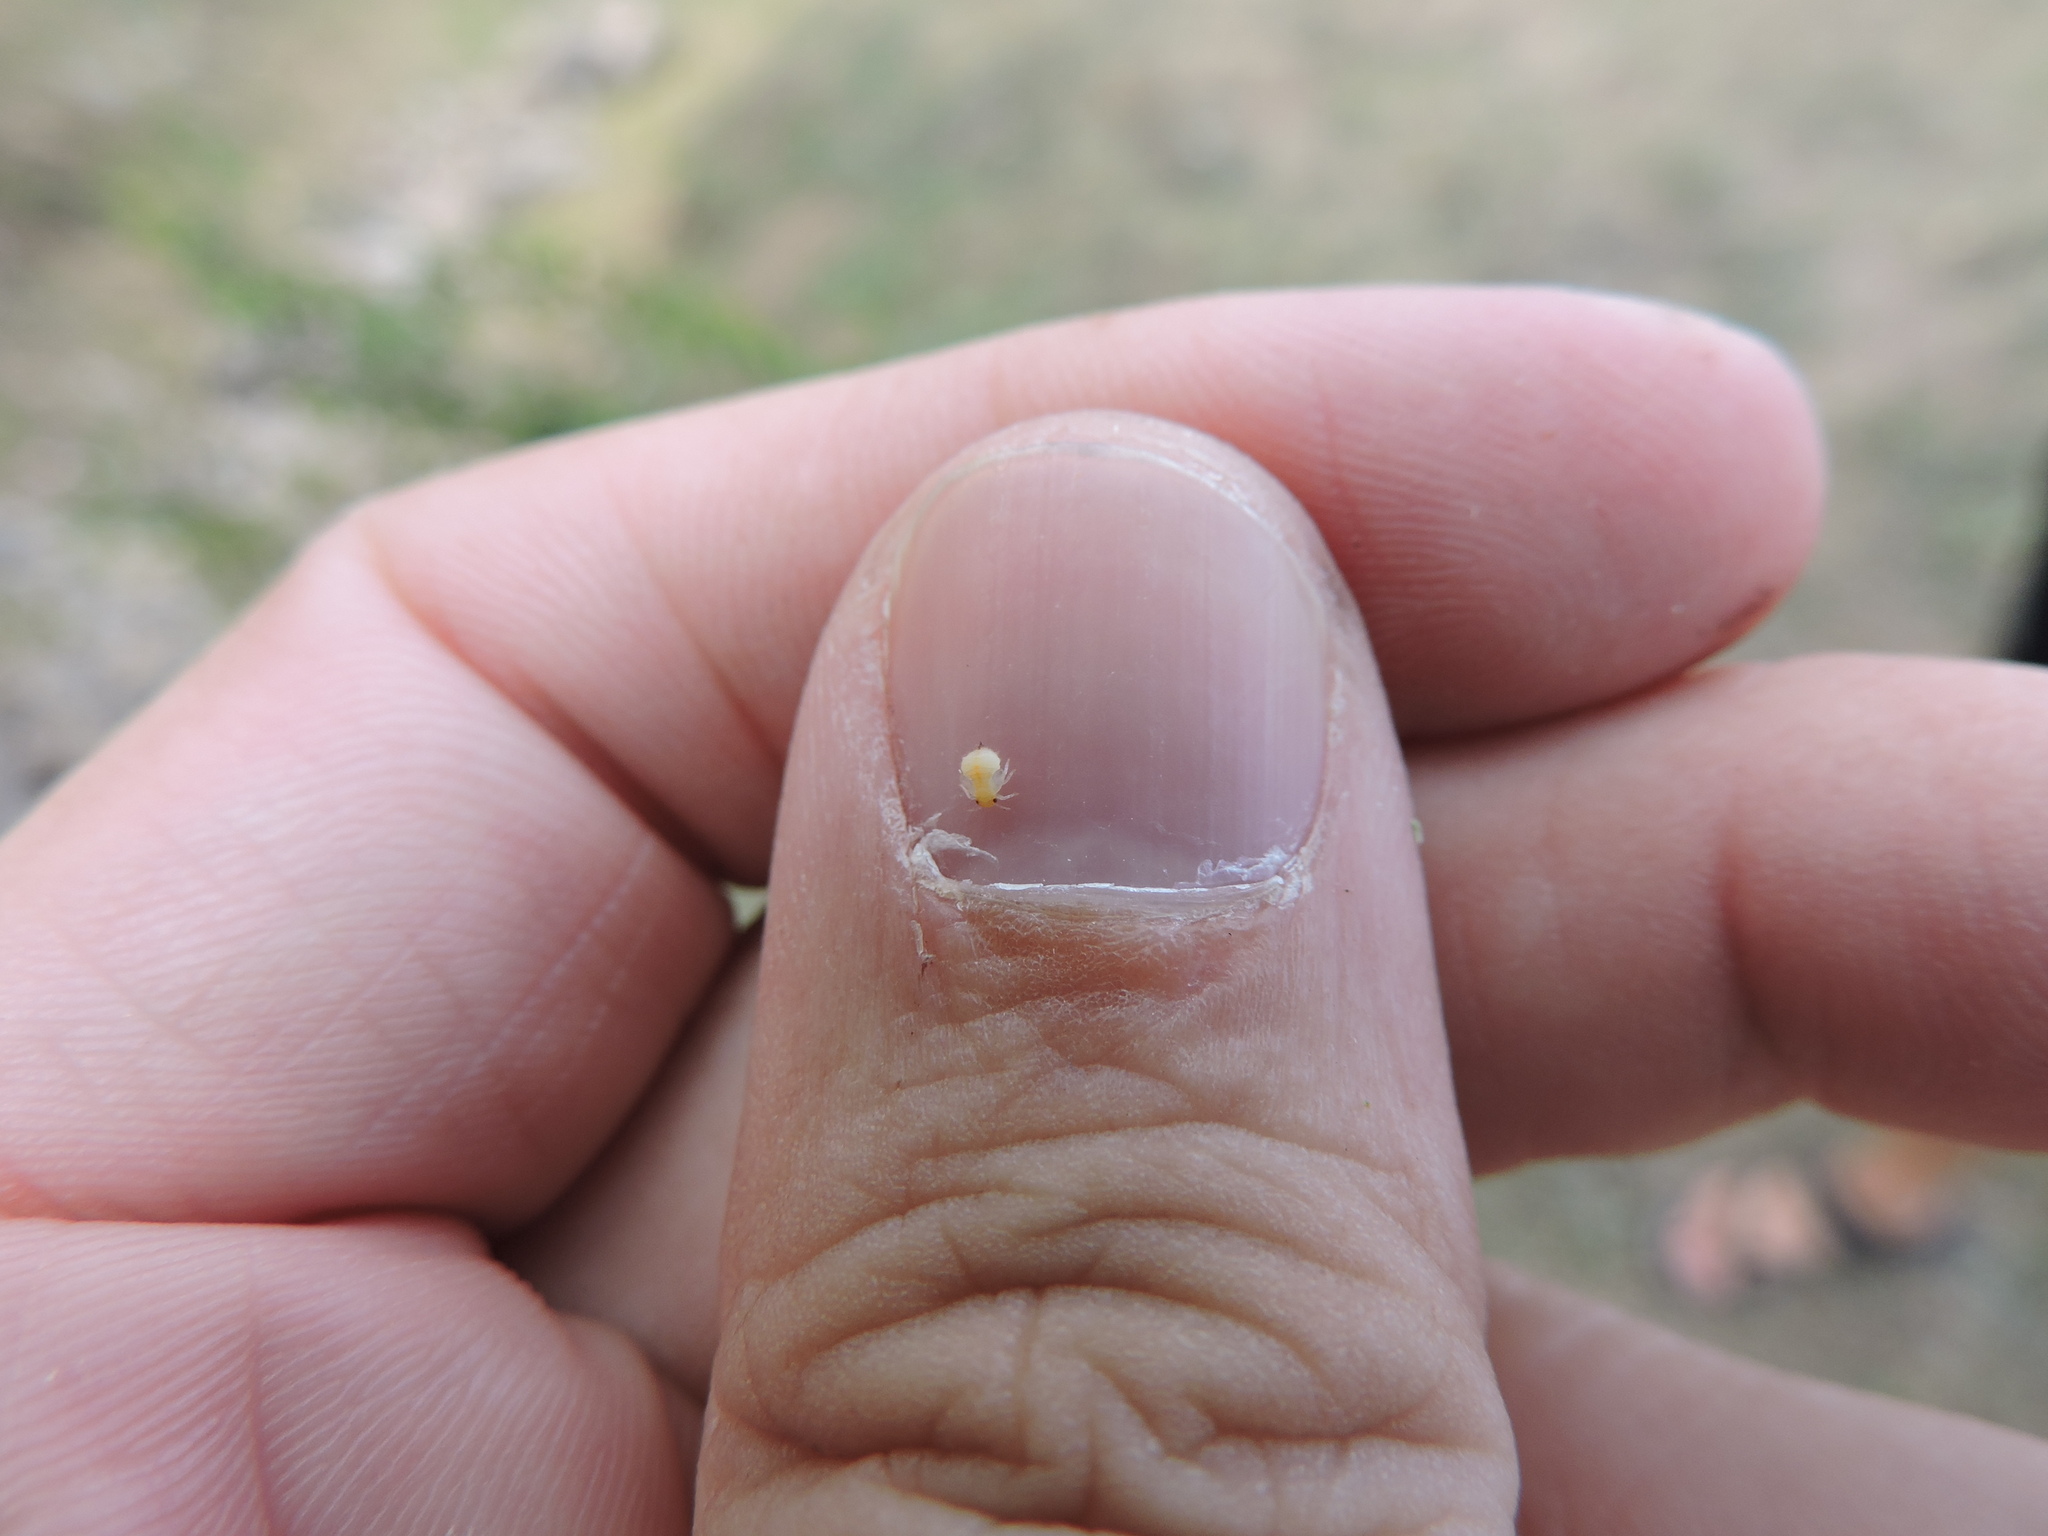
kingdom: Animalia
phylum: Arthropoda
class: Insecta
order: Hemiptera
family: Aphalaridae
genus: Pachypsylla
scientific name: Pachypsylla celtidisvesicula
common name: Hackberry blister gall psyllid
